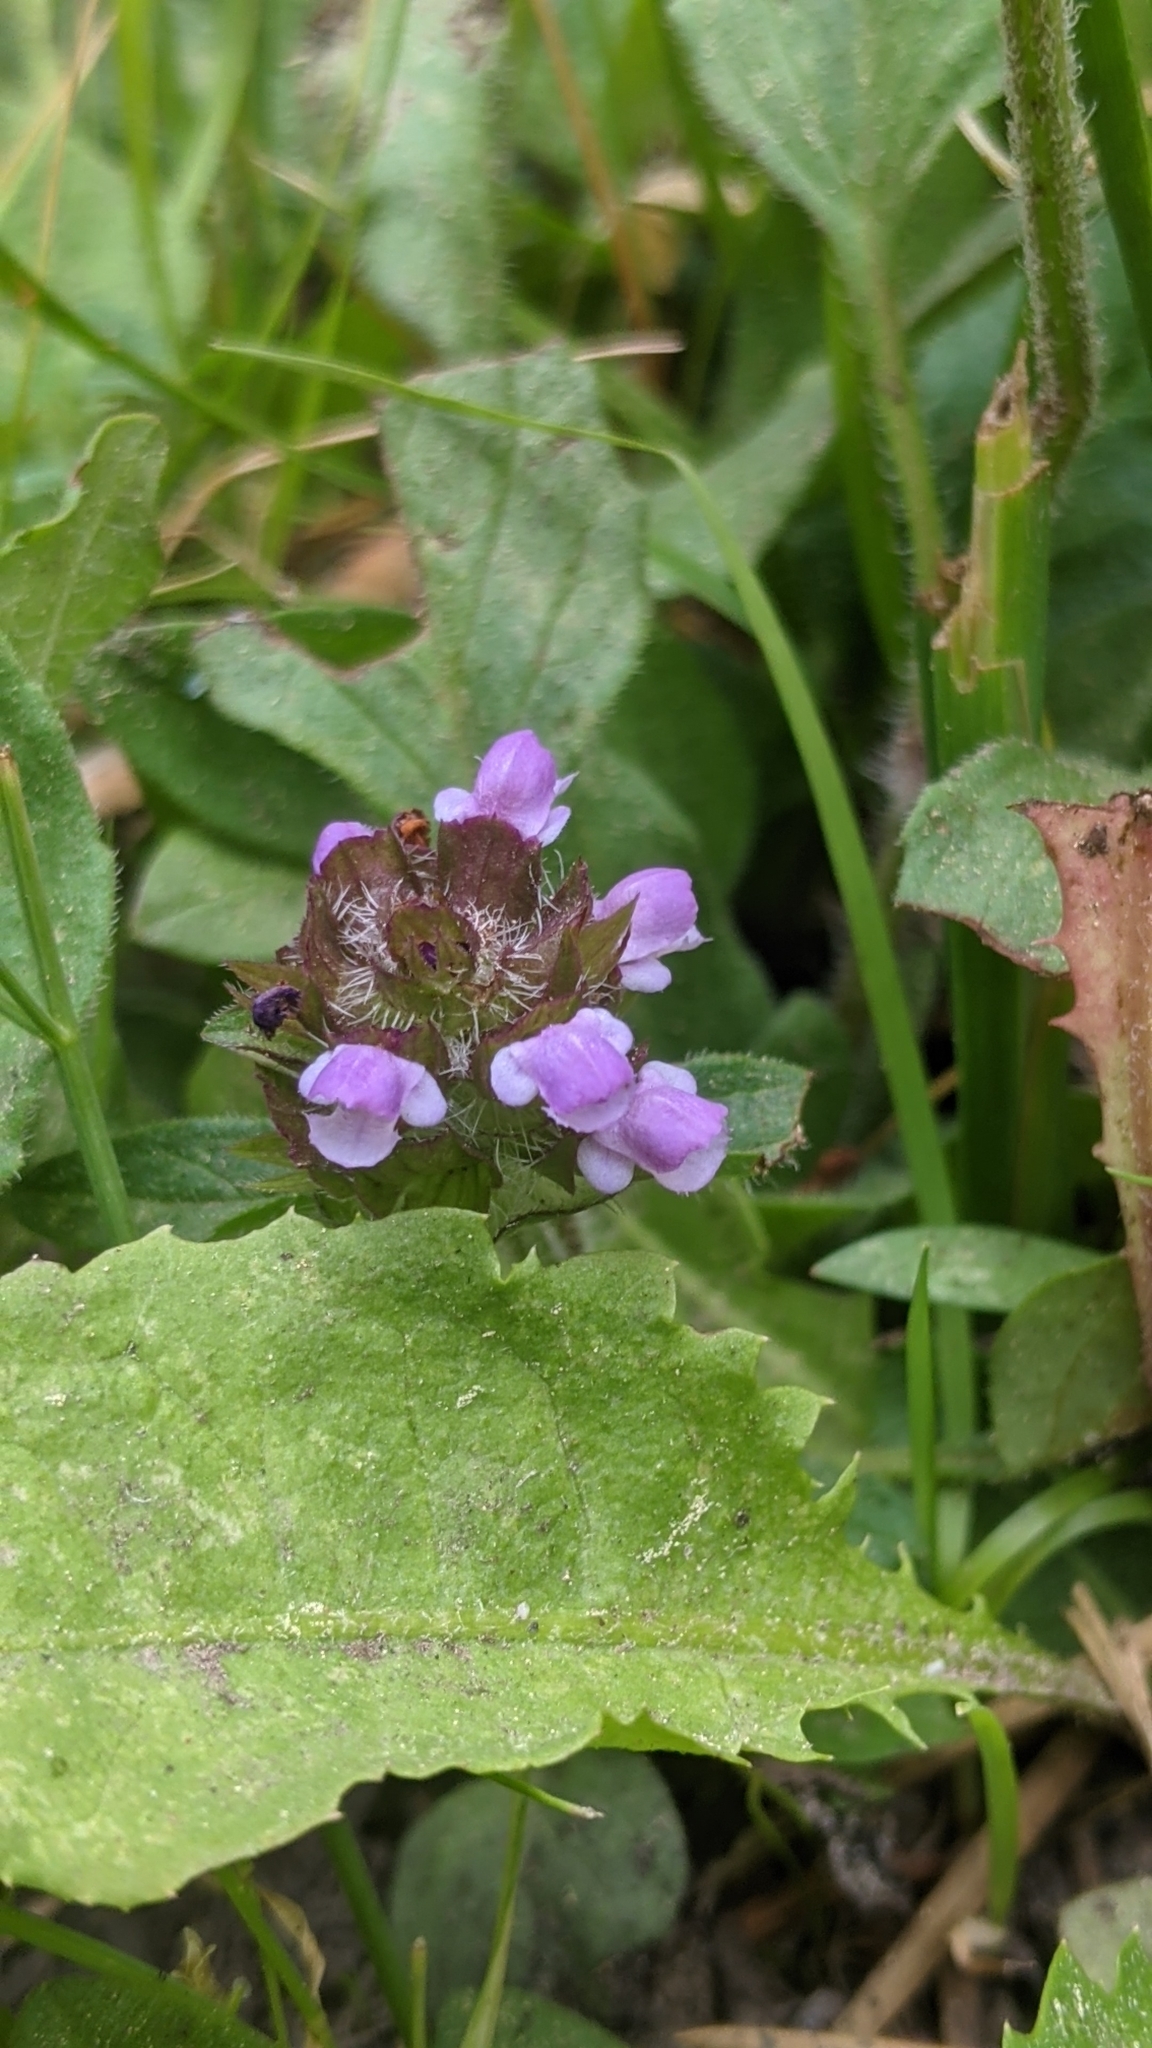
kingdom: Plantae
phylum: Tracheophyta
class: Magnoliopsida
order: Lamiales
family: Lamiaceae
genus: Prunella
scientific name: Prunella vulgaris
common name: Heal-all
